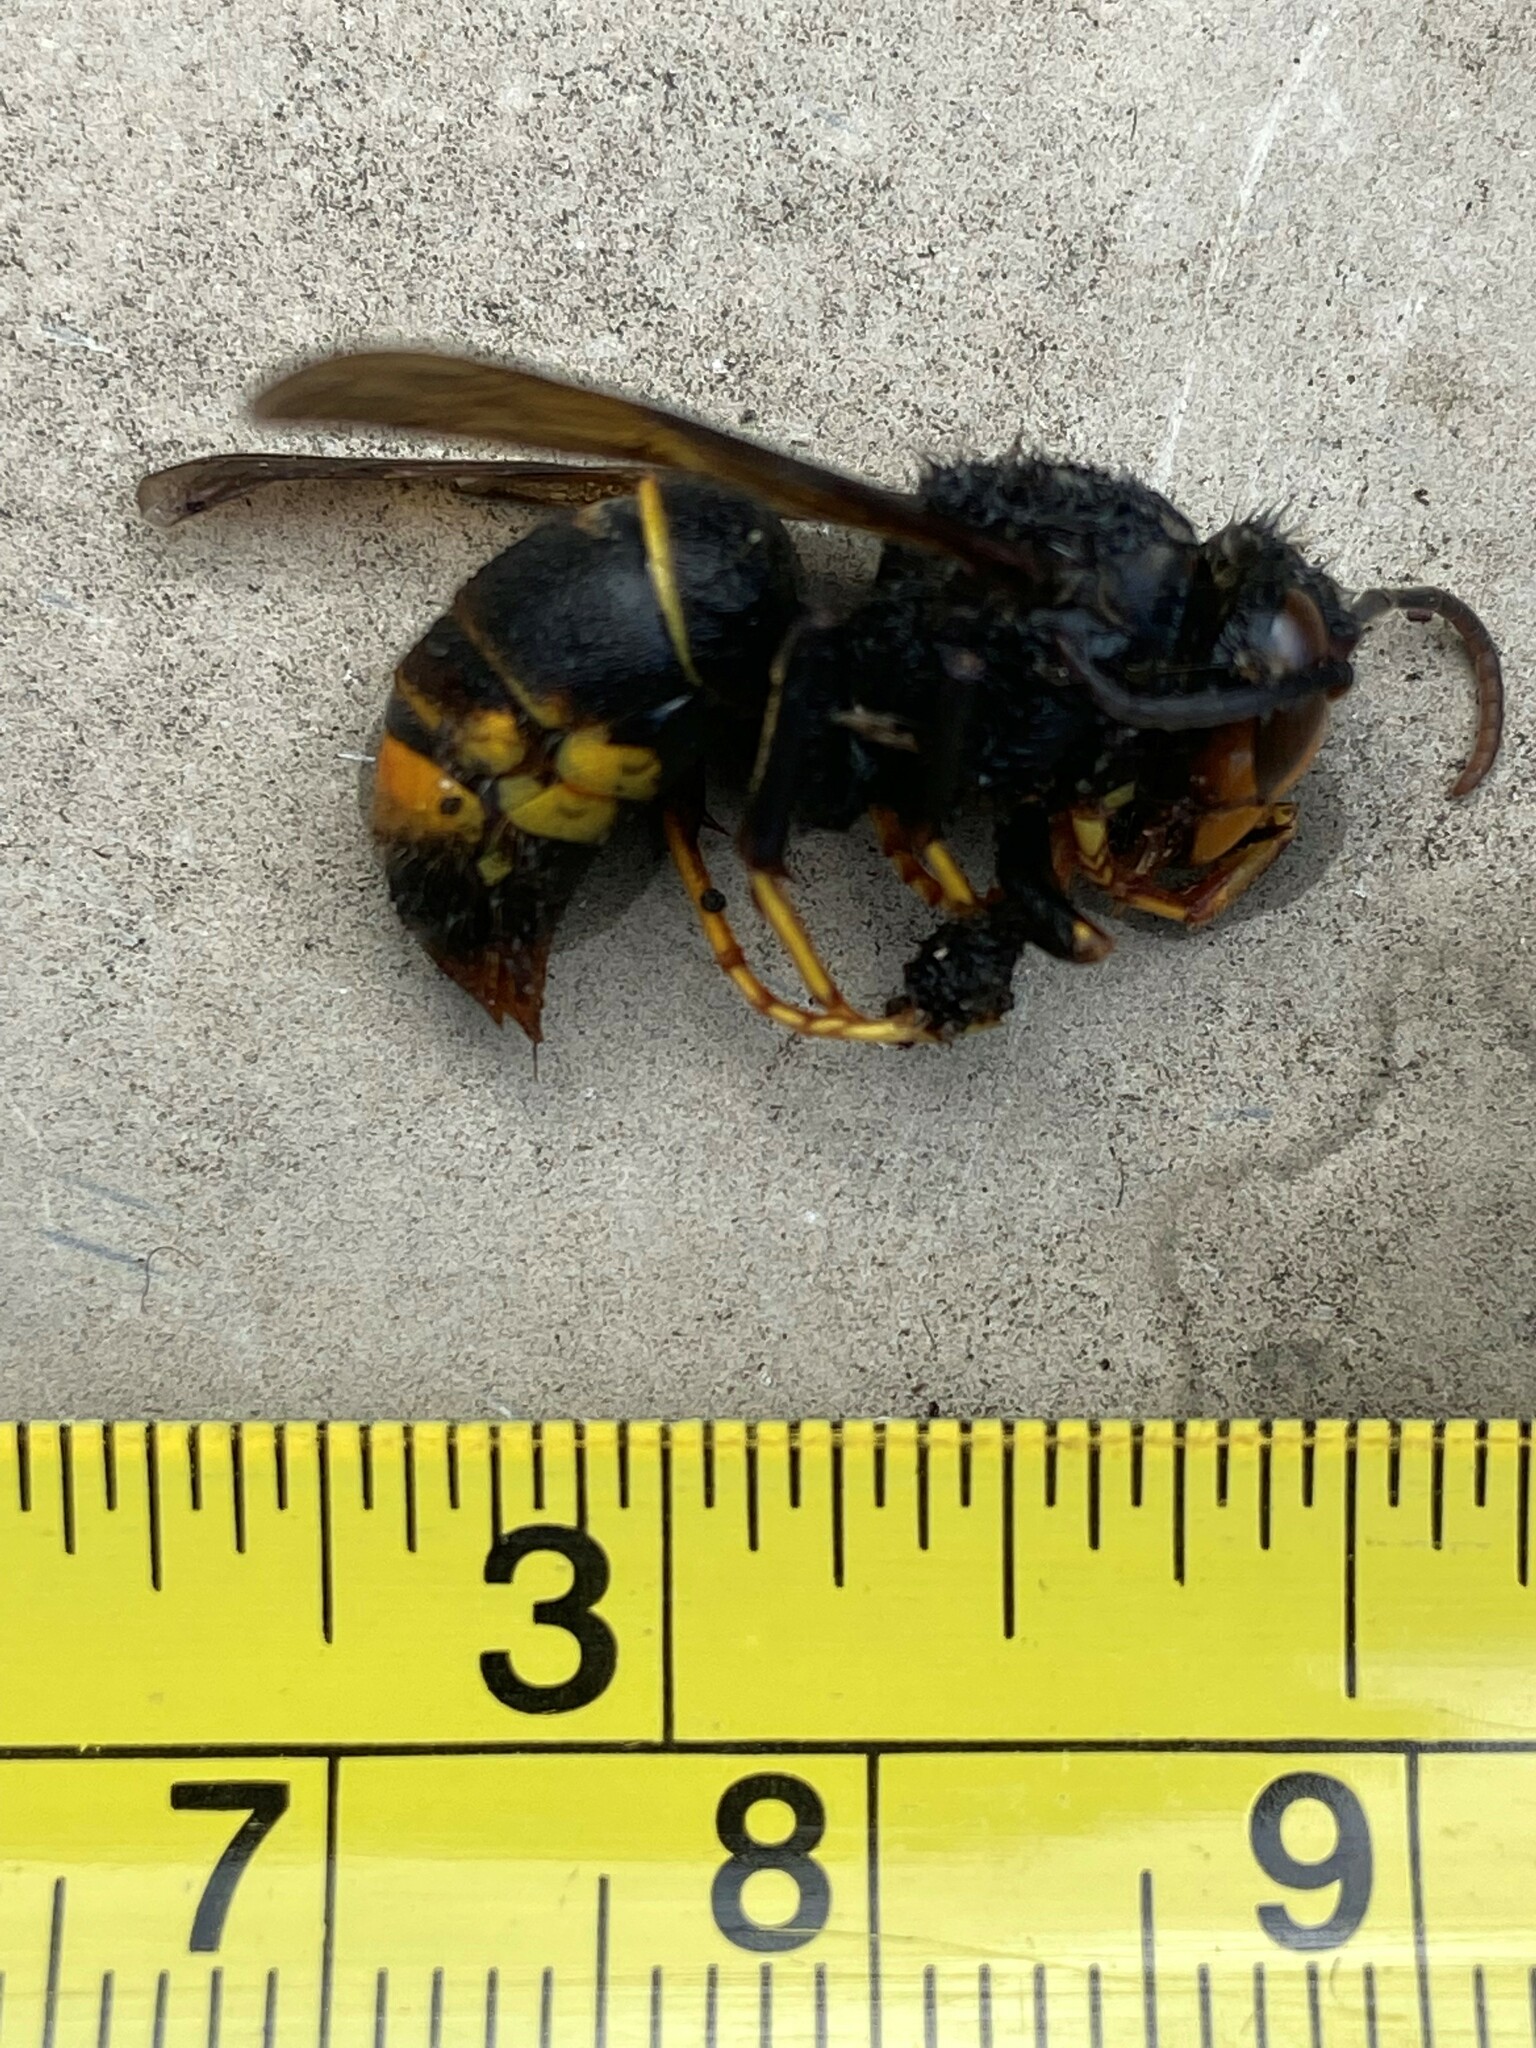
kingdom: Animalia
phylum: Arthropoda
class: Insecta
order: Hymenoptera
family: Vespidae
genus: Vespa
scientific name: Vespa velutina
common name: Asian hornet
